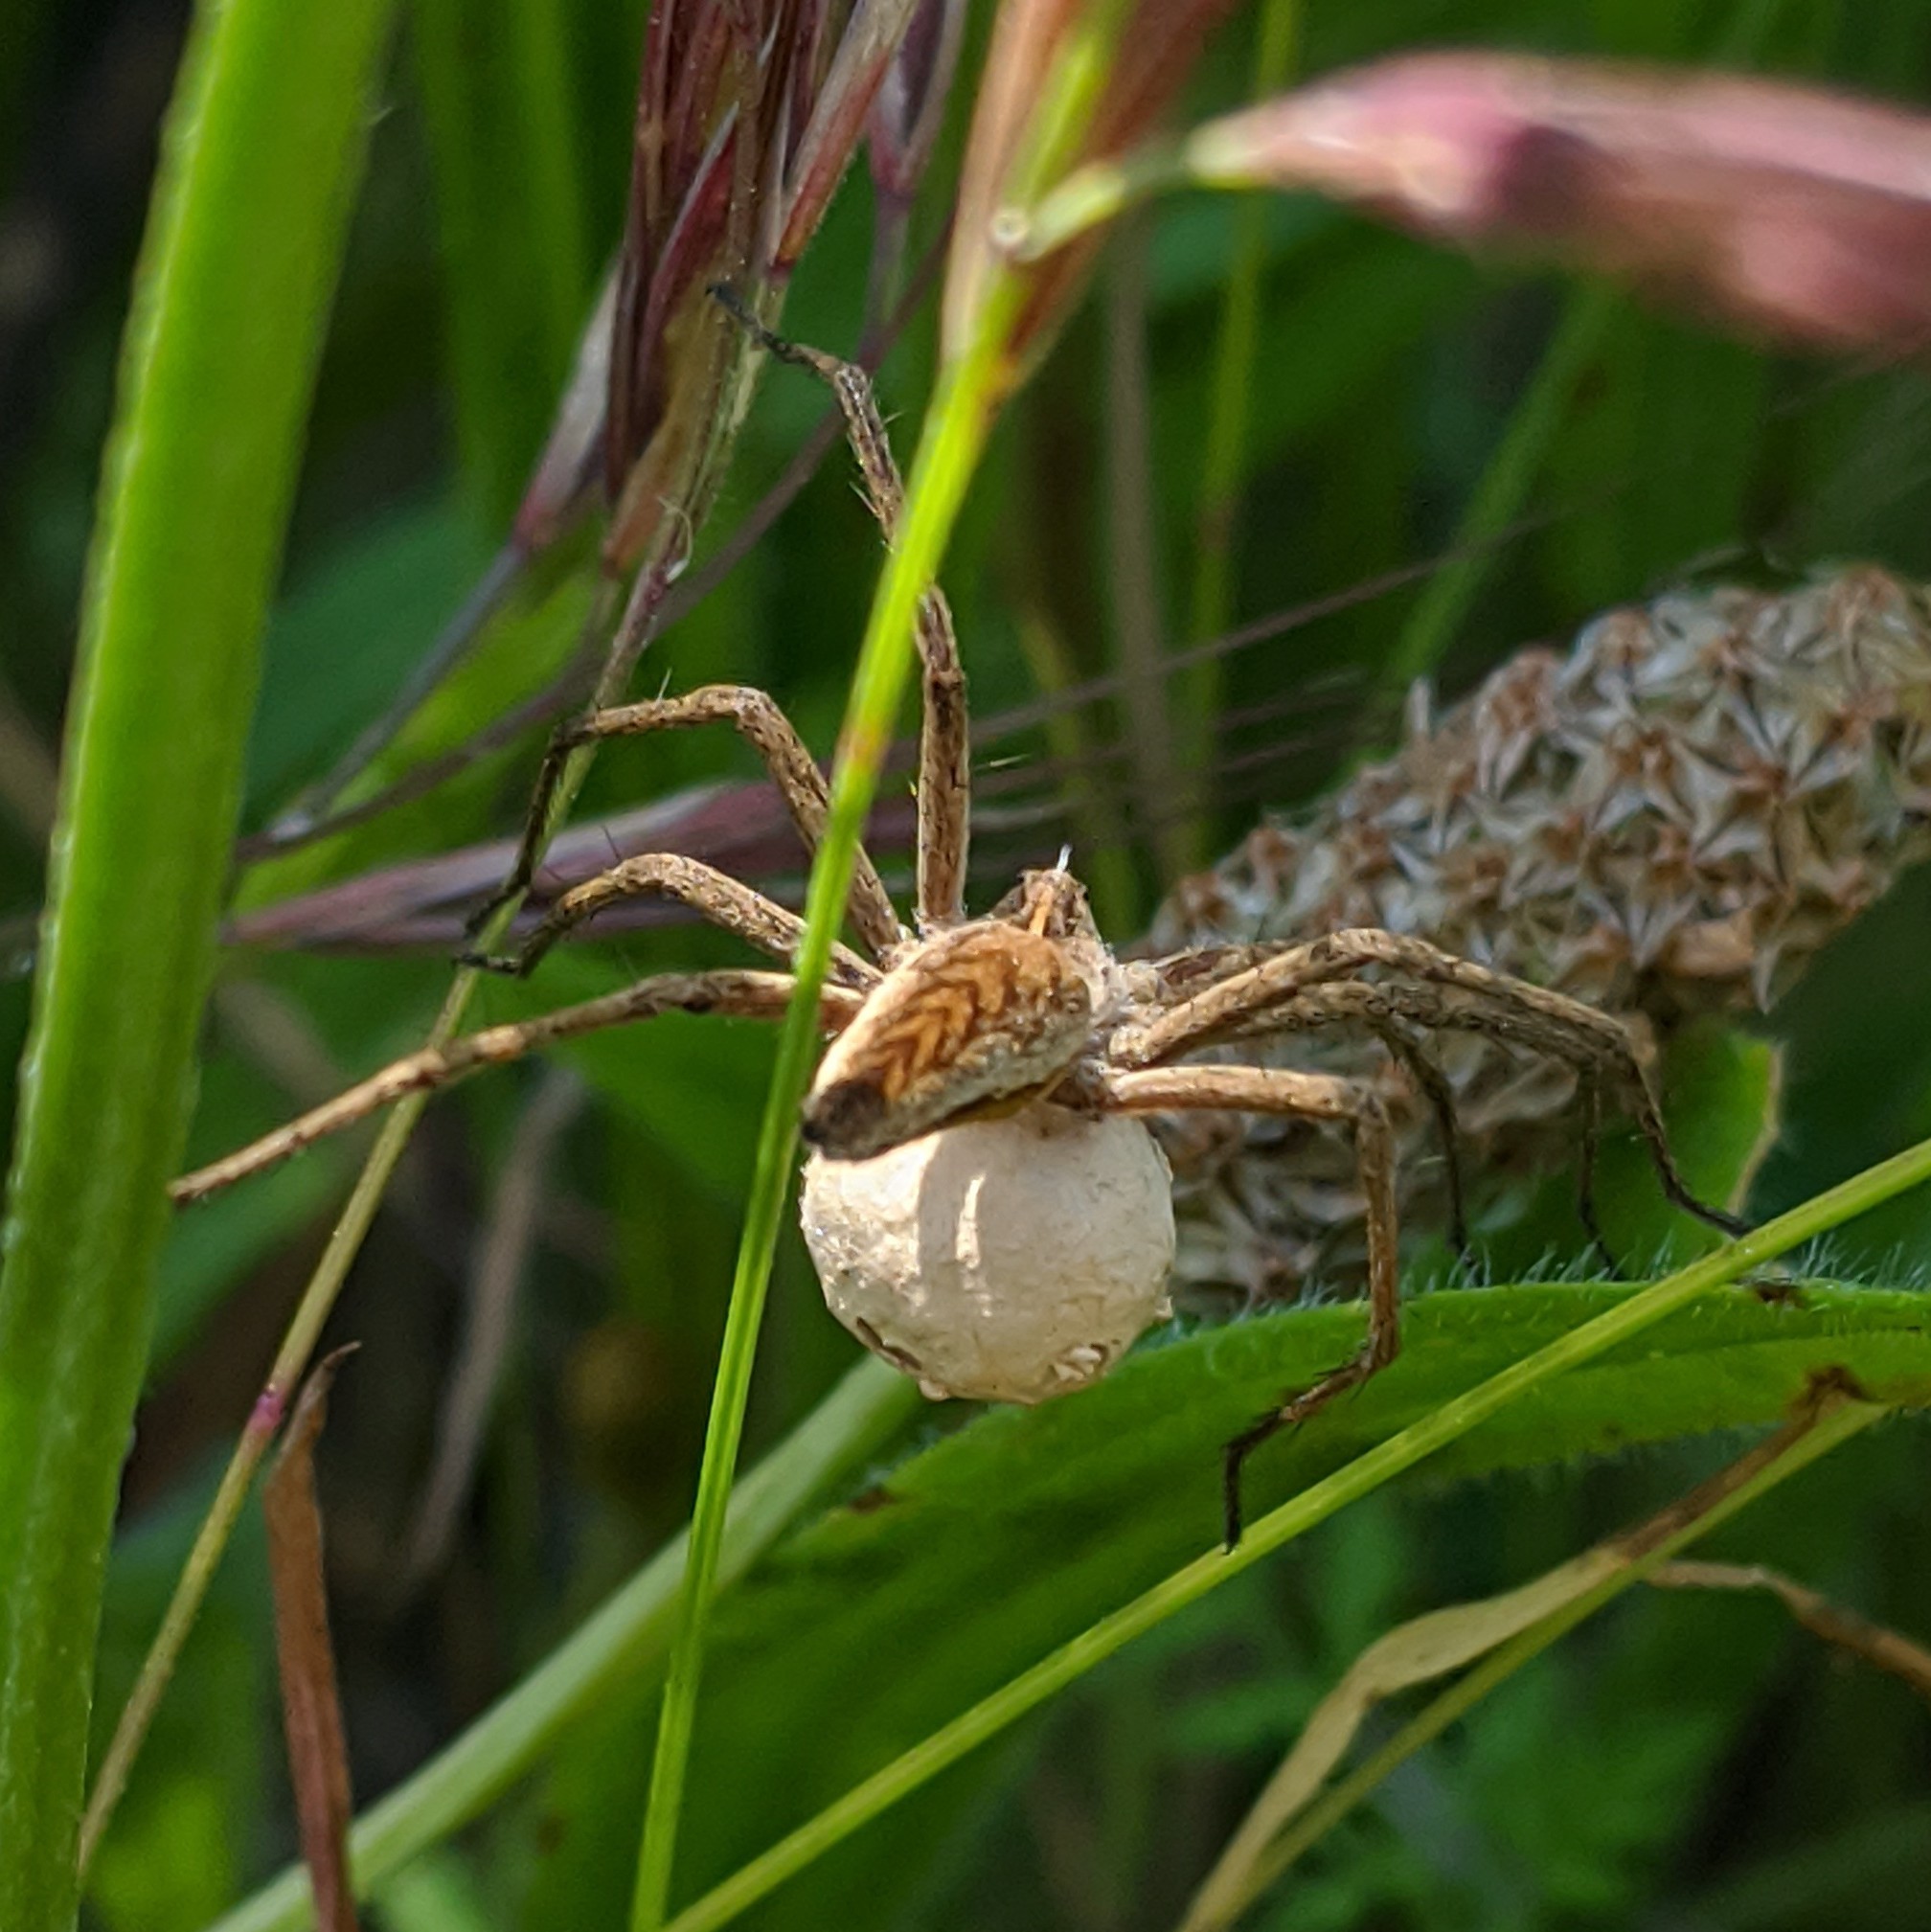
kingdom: Animalia
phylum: Arthropoda
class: Arachnida
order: Araneae
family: Pisauridae
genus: Pisaura
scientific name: Pisaura mirabilis
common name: Tent spider
